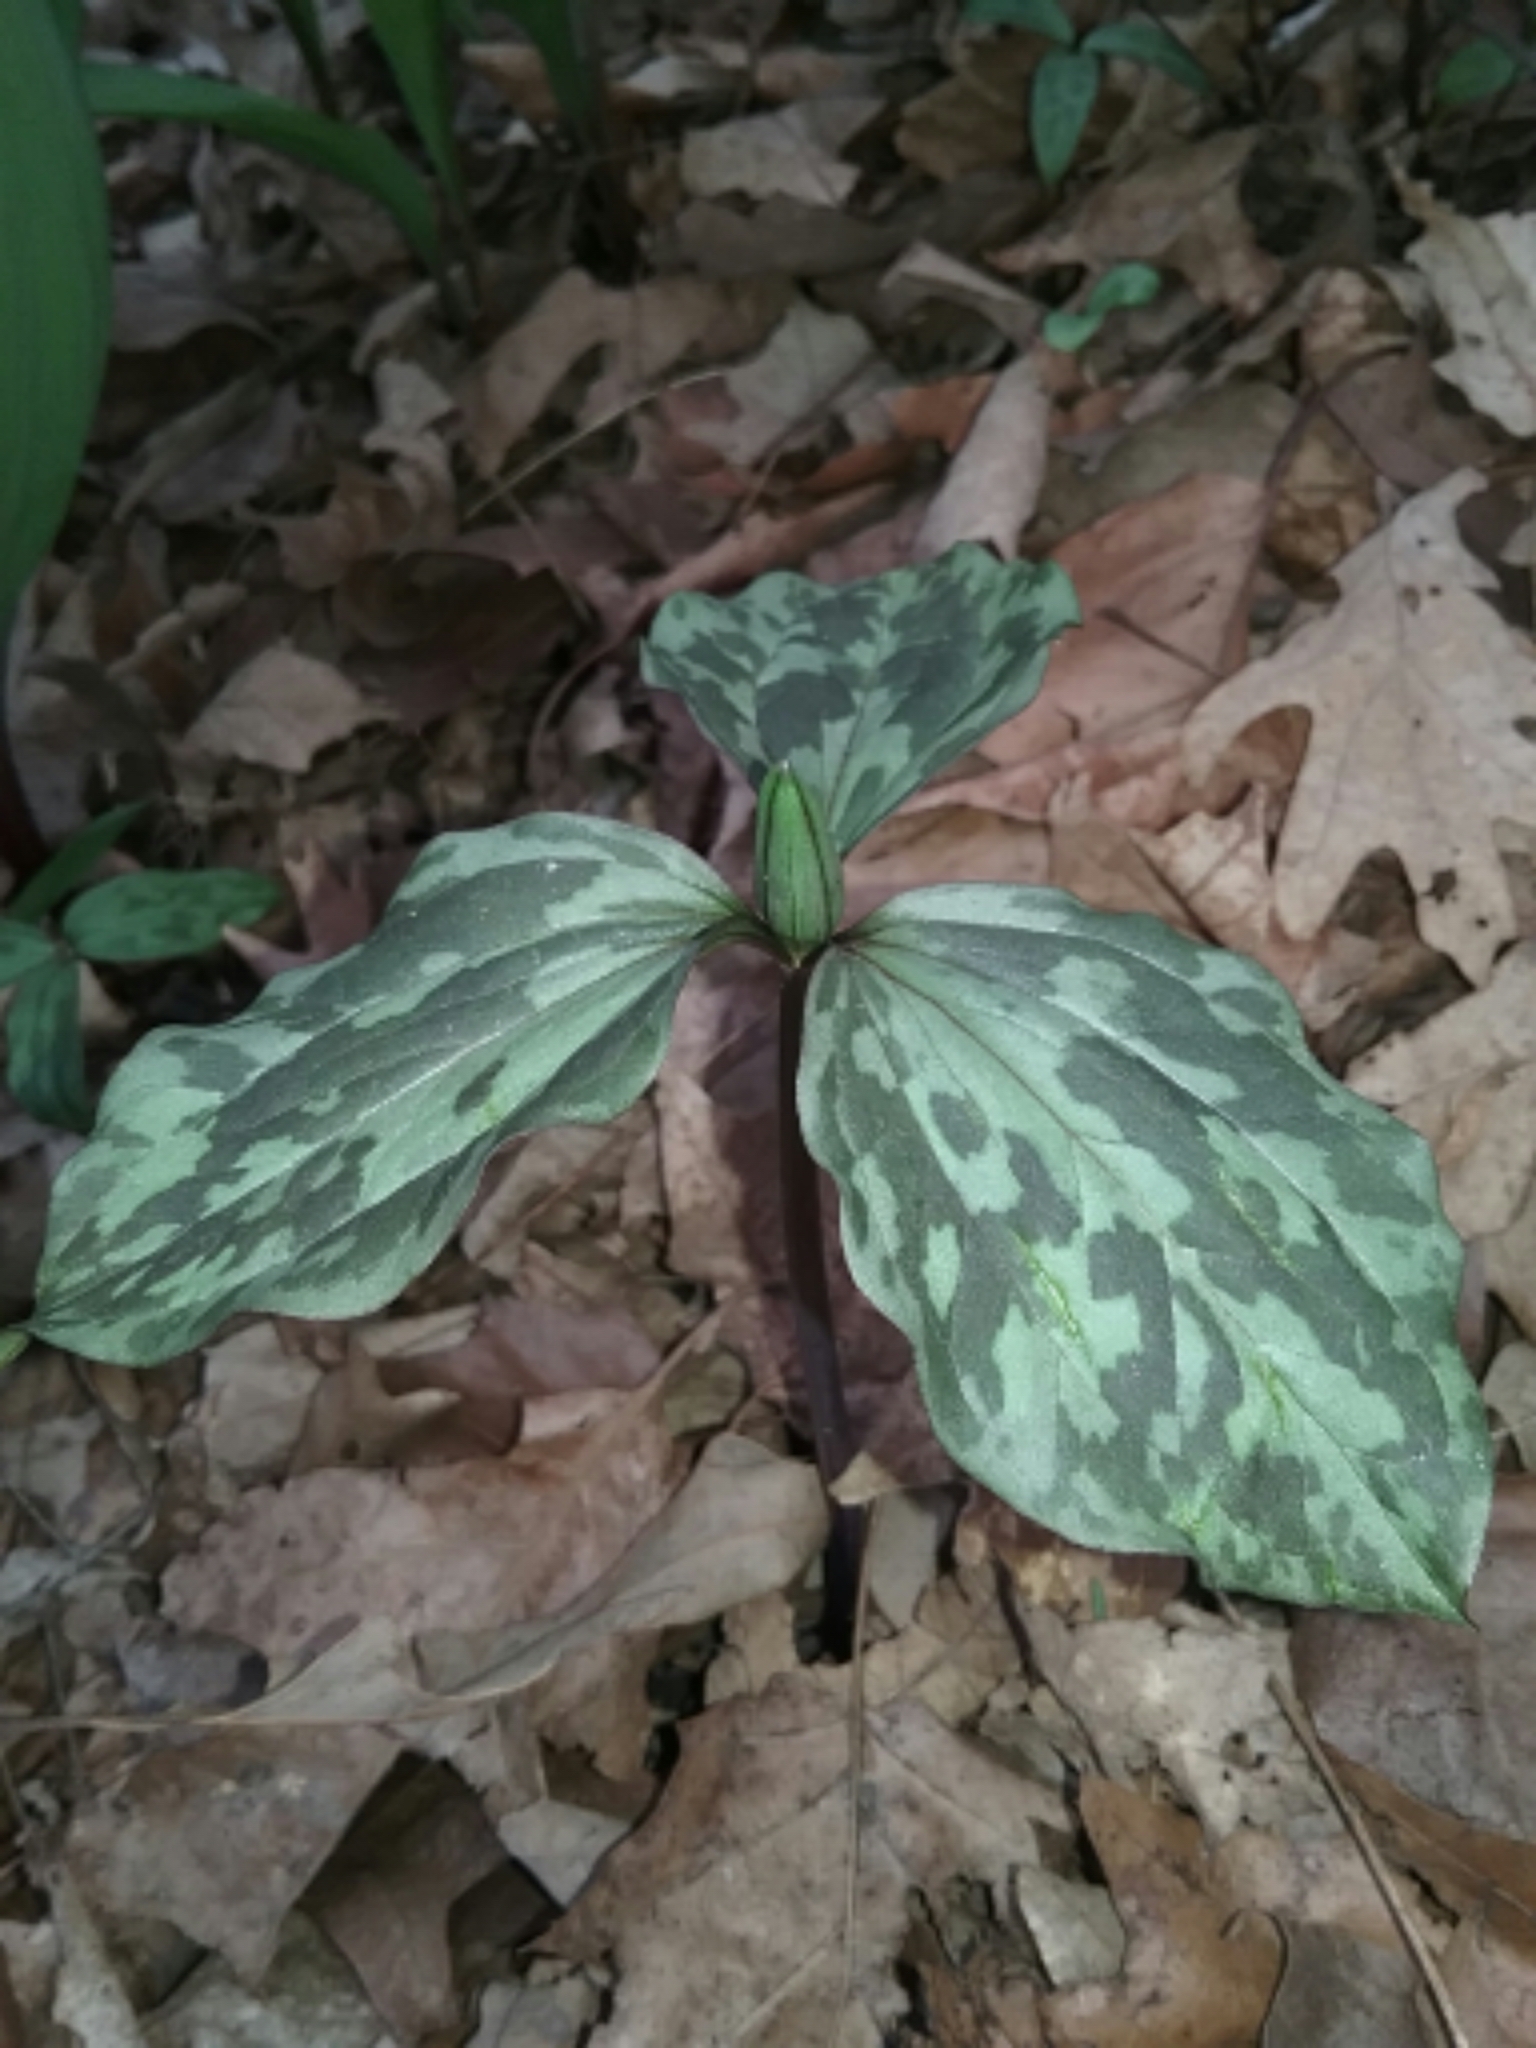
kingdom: Plantae
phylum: Tracheophyta
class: Liliopsida
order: Liliales
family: Melanthiaceae
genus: Trillium
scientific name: Trillium recurvatum
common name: Bloody butcher
